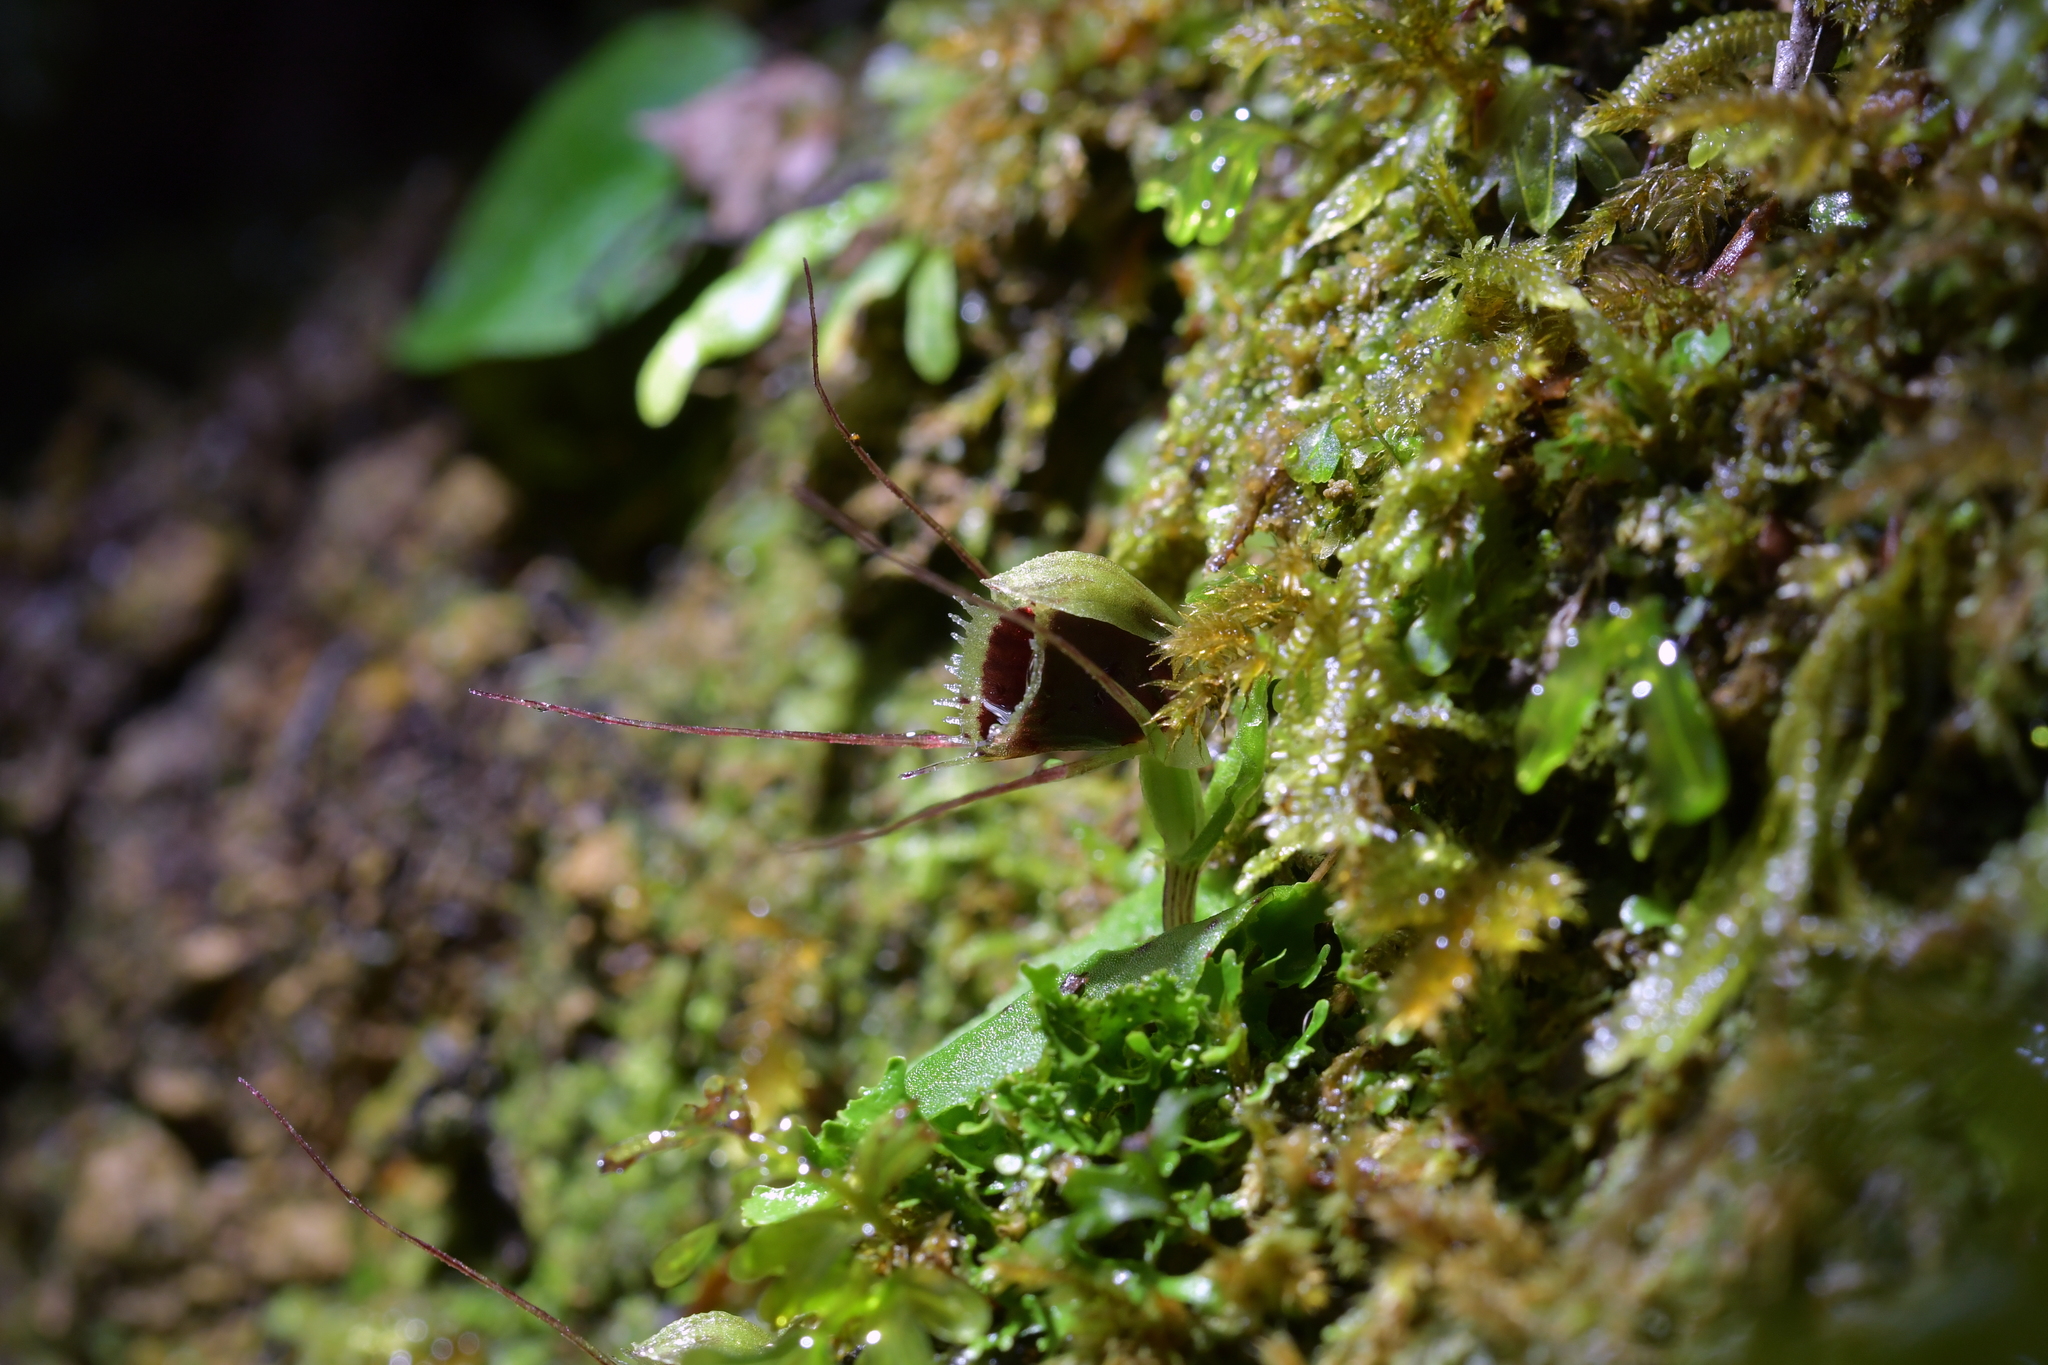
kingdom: Plantae
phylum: Tracheophyta
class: Liliopsida
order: Asparagales
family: Orchidaceae
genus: Corybas
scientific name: Corybas oblongus
